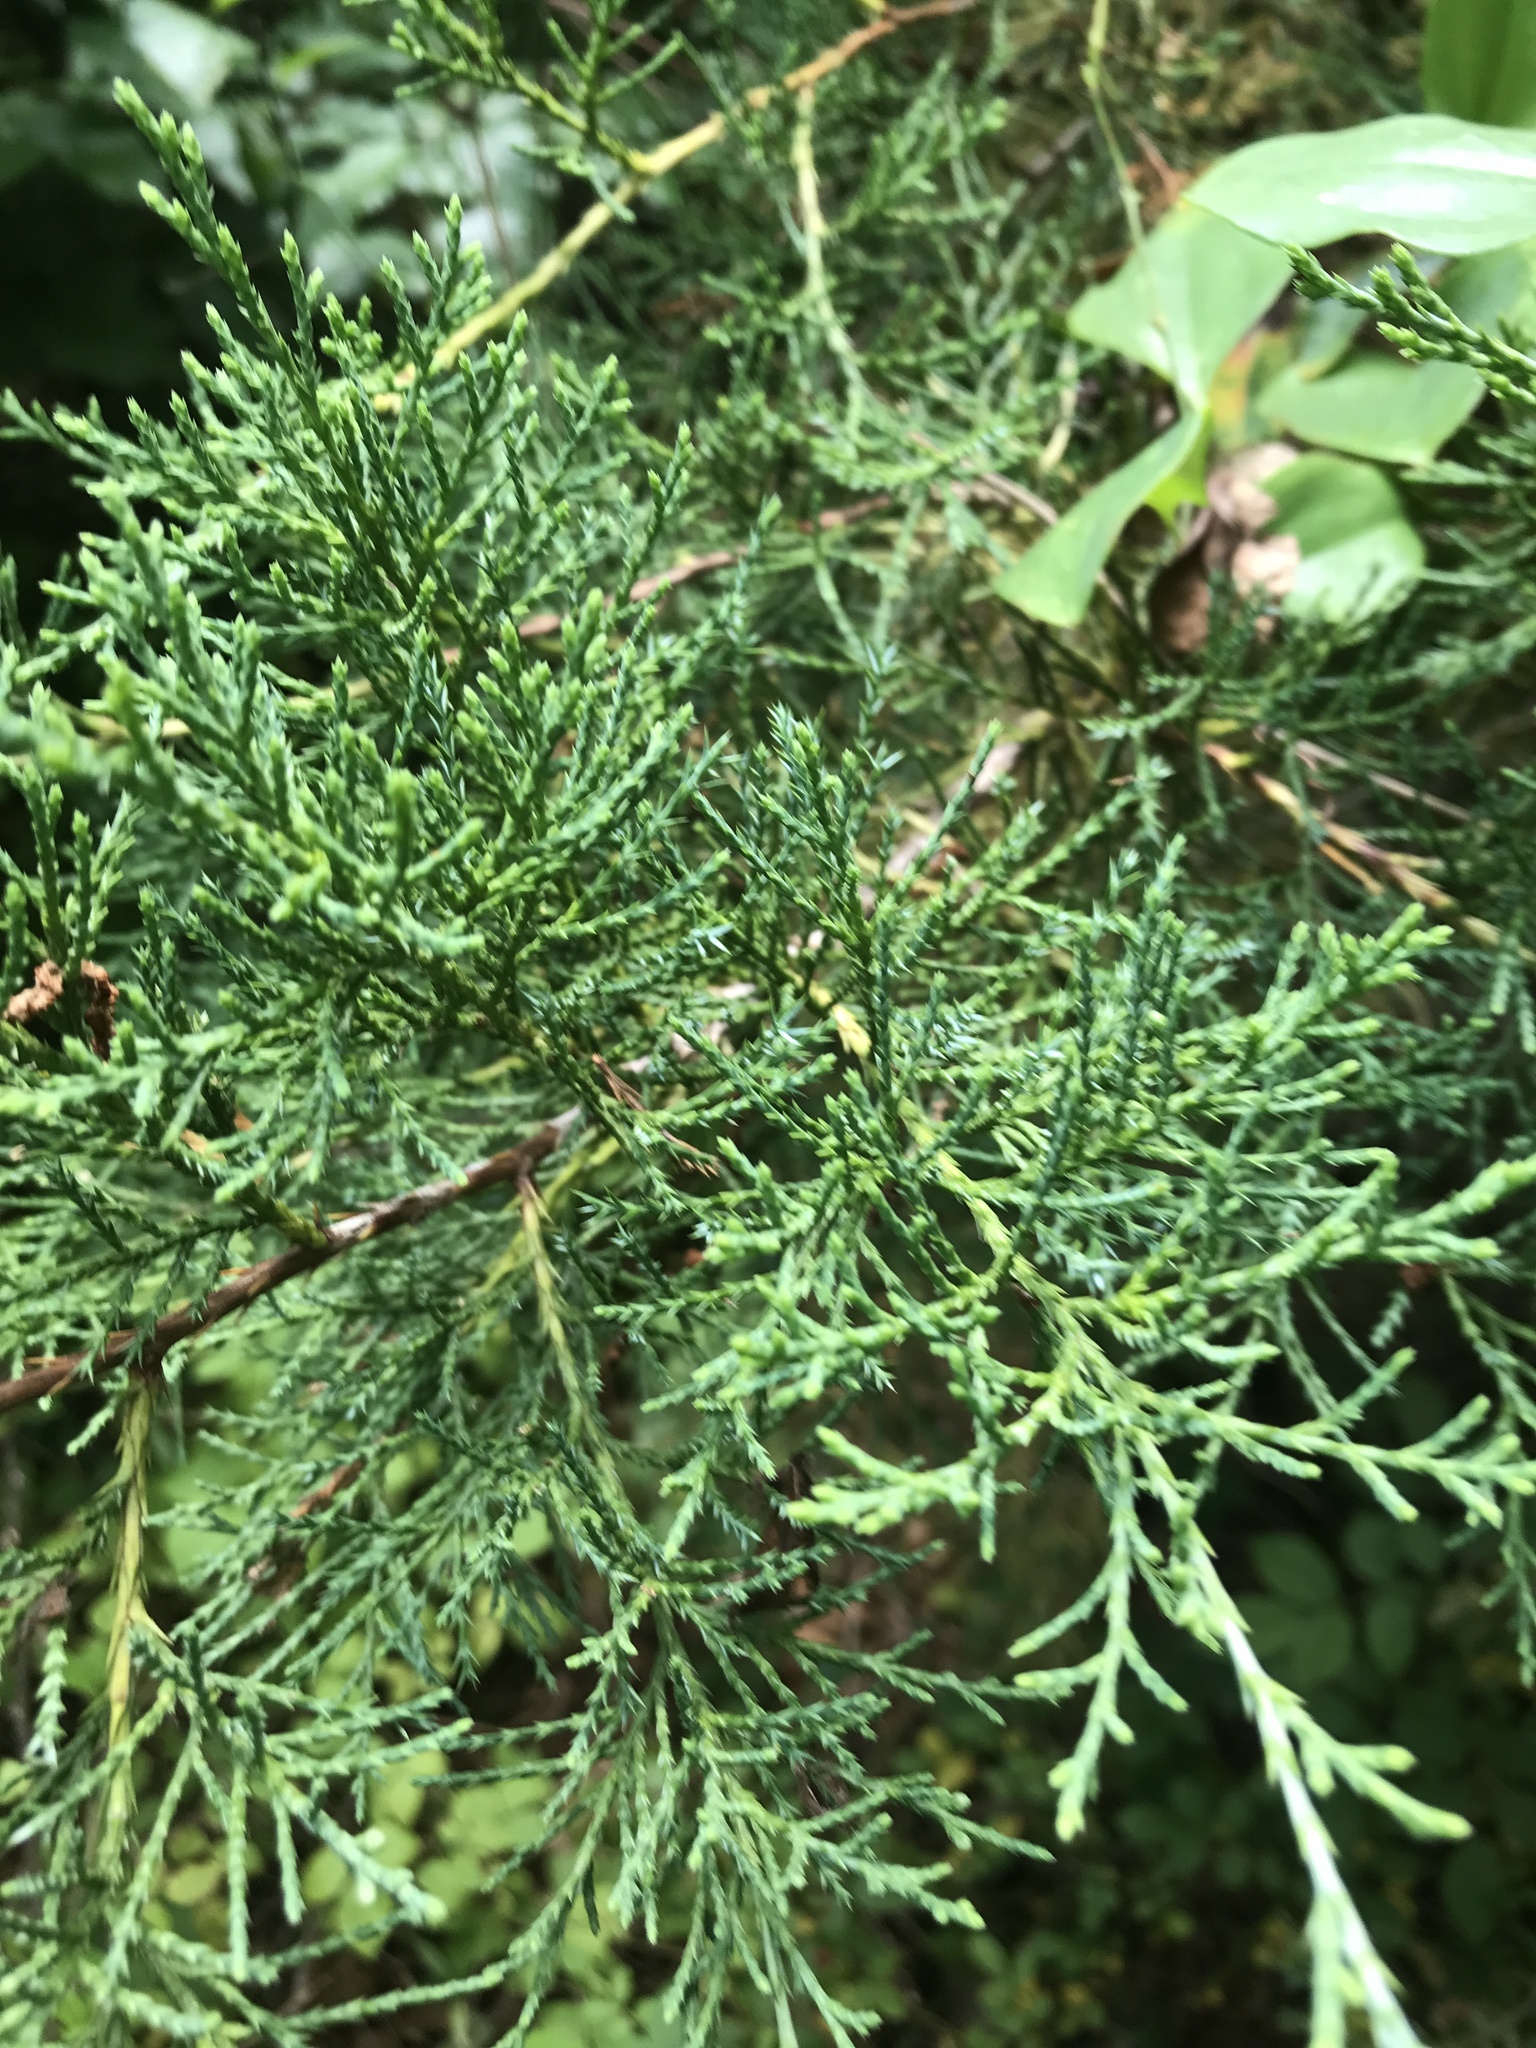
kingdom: Plantae
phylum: Tracheophyta
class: Pinopsida
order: Pinales
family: Cupressaceae
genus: Juniperus
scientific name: Juniperus virginiana
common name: Red juniper
